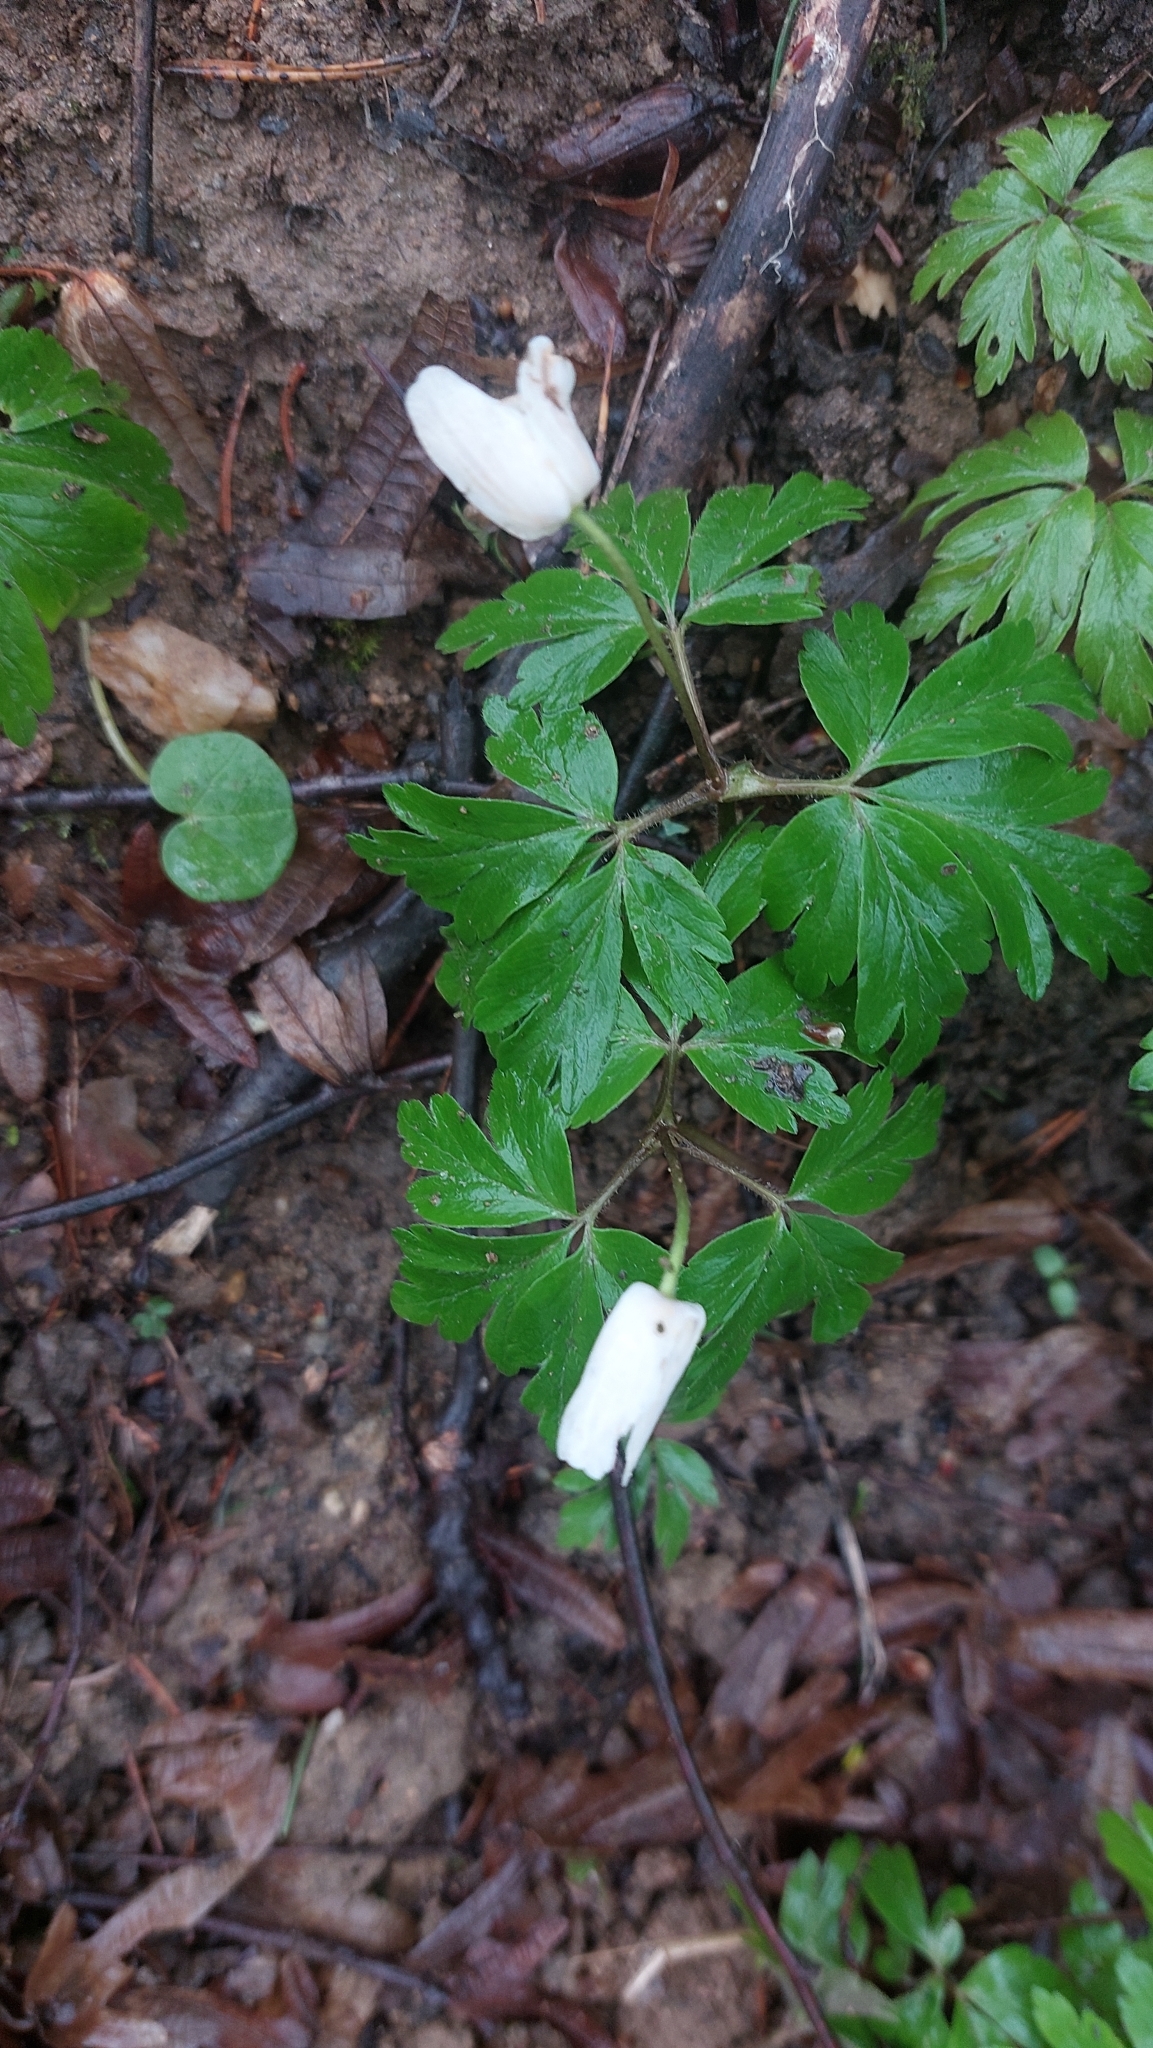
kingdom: Plantae
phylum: Tracheophyta
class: Magnoliopsida
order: Ranunculales
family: Ranunculaceae
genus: Anemone
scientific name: Anemone nemorosa
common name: Wood anemone
